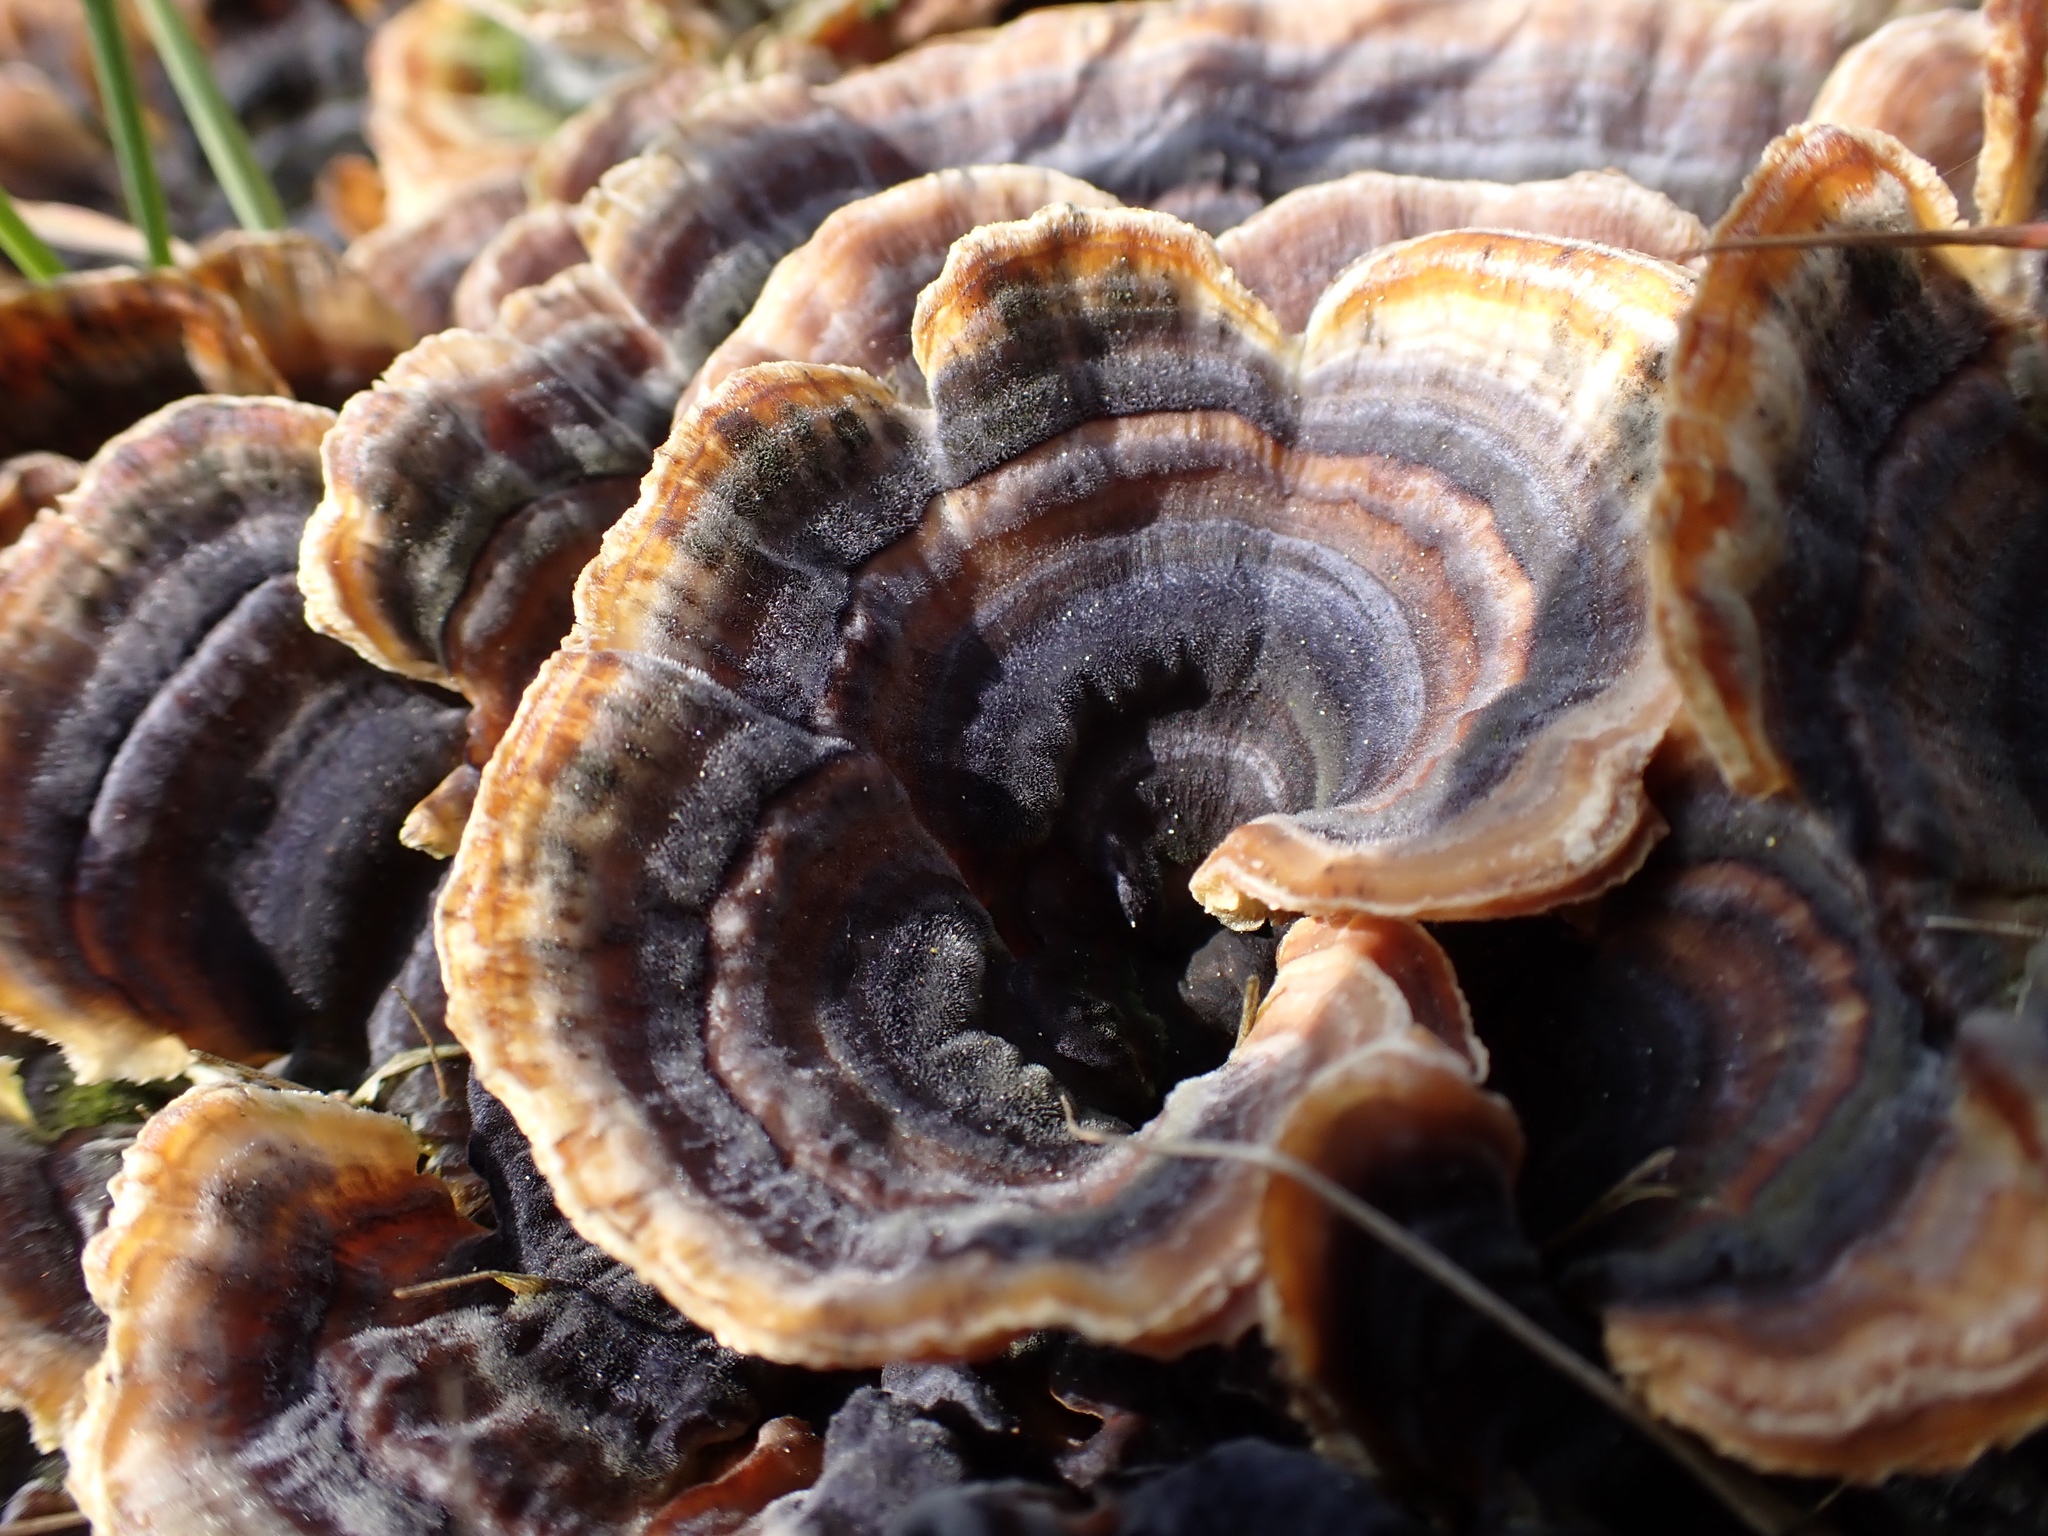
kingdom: Fungi
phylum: Basidiomycota
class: Agaricomycetes
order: Polyporales
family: Polyporaceae
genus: Trametes
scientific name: Trametes versicolor
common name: Turkeytail
